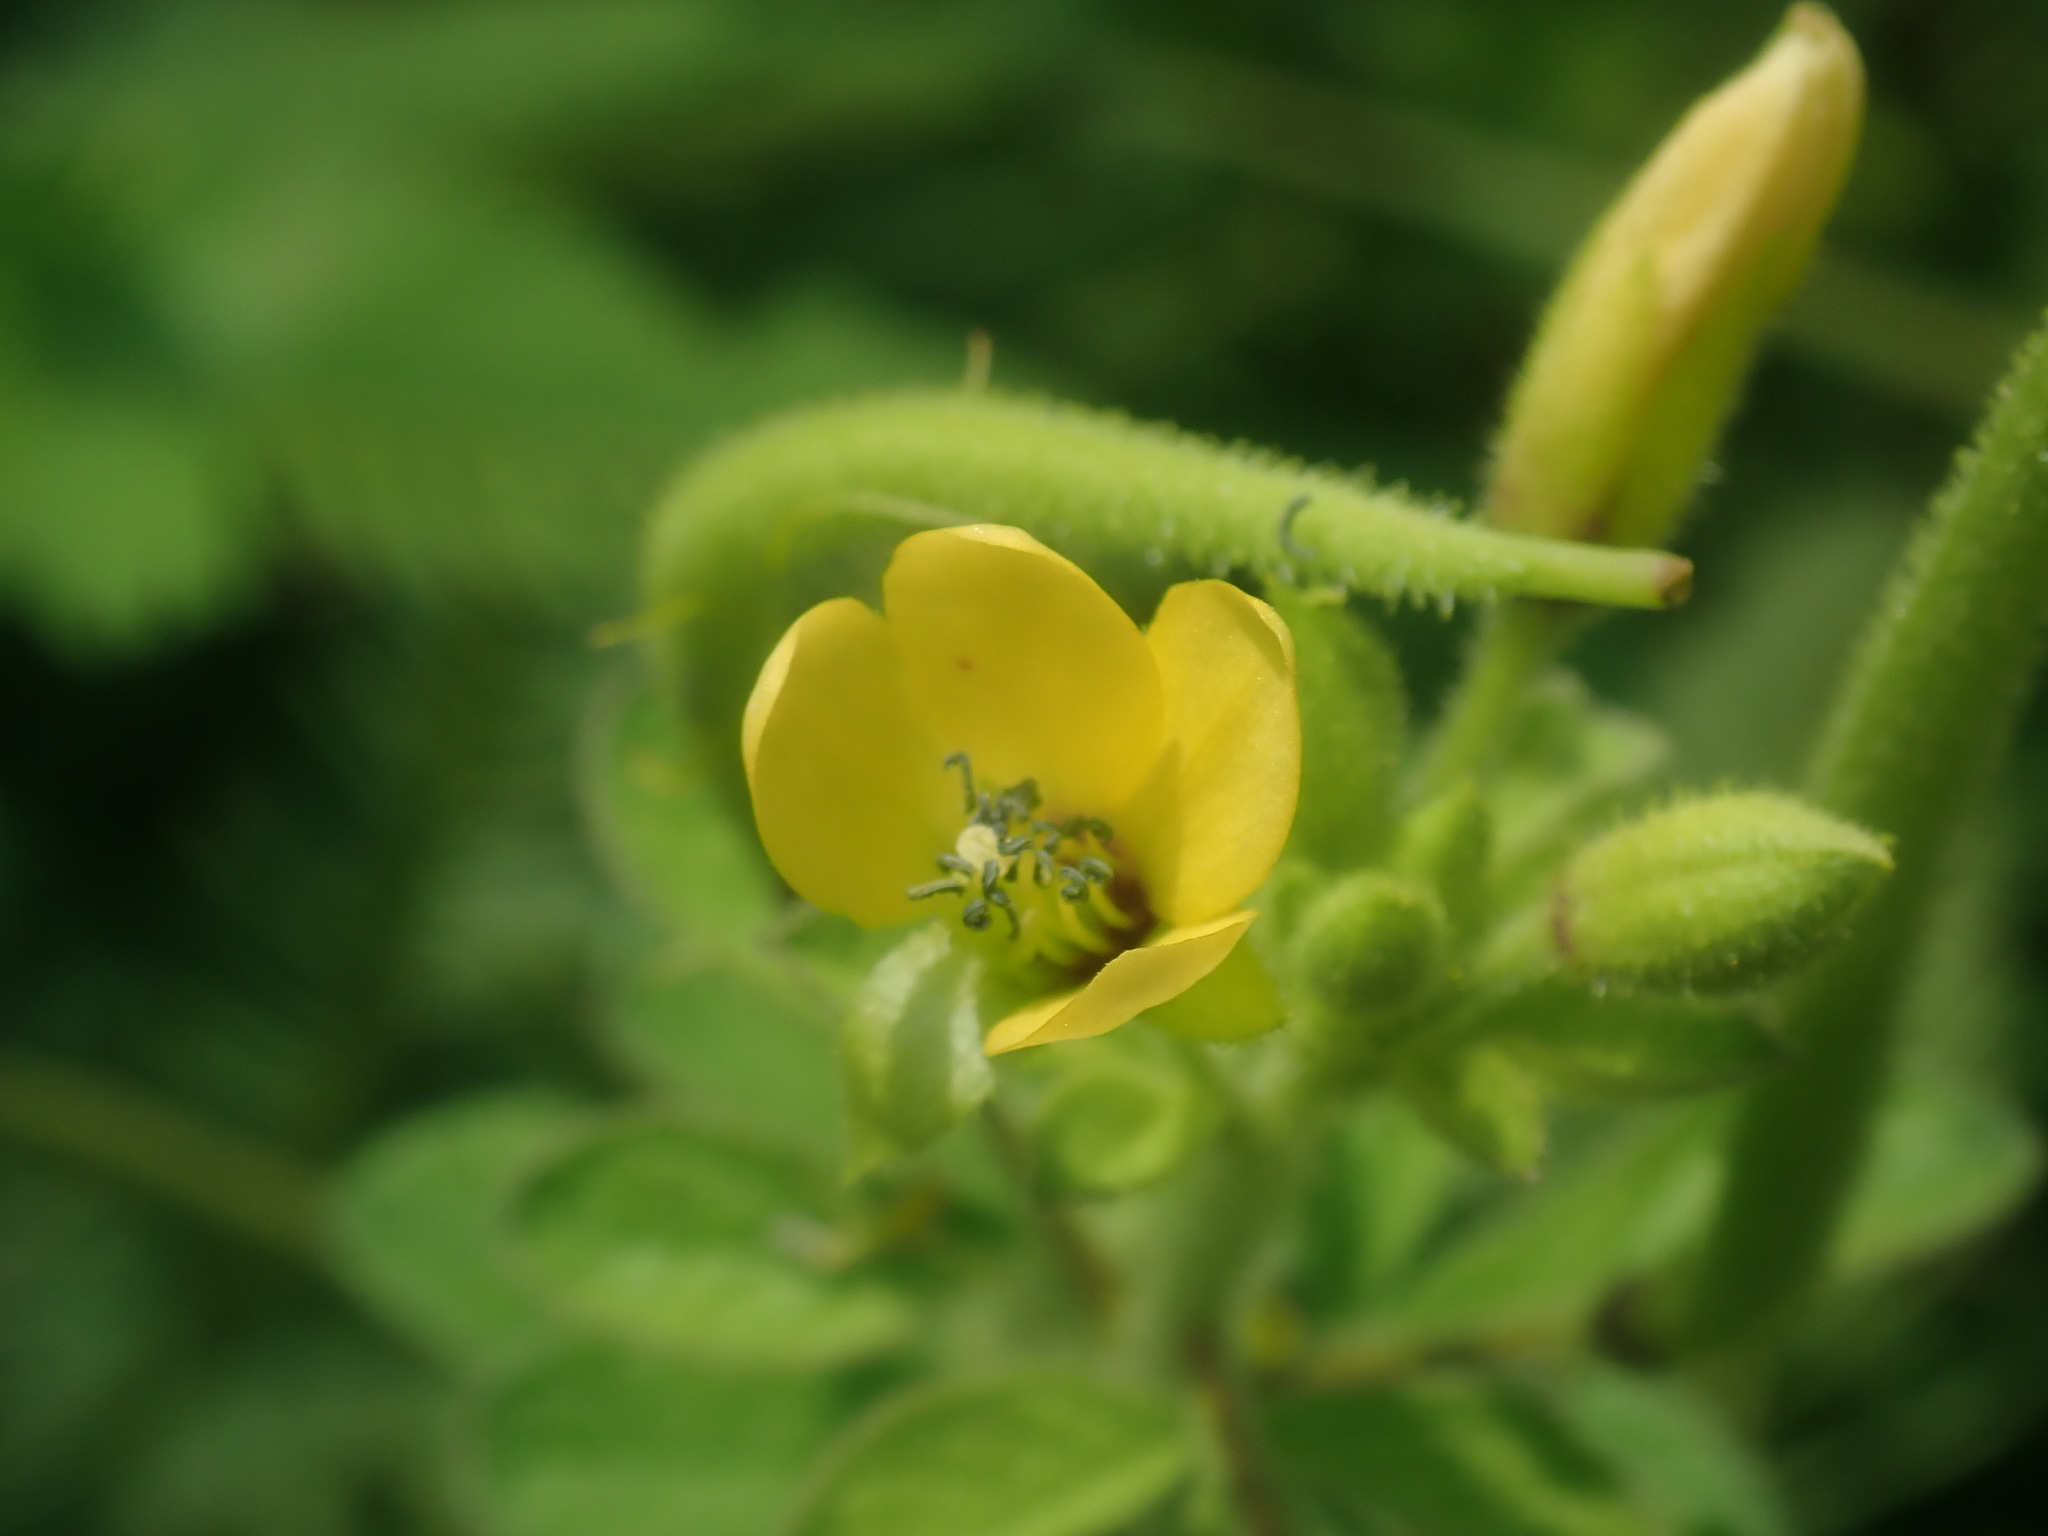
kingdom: Plantae
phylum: Tracheophyta
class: Magnoliopsida
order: Brassicales
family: Cleomaceae
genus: Arivela
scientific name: Arivela viscosa
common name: Asian spiderflower
